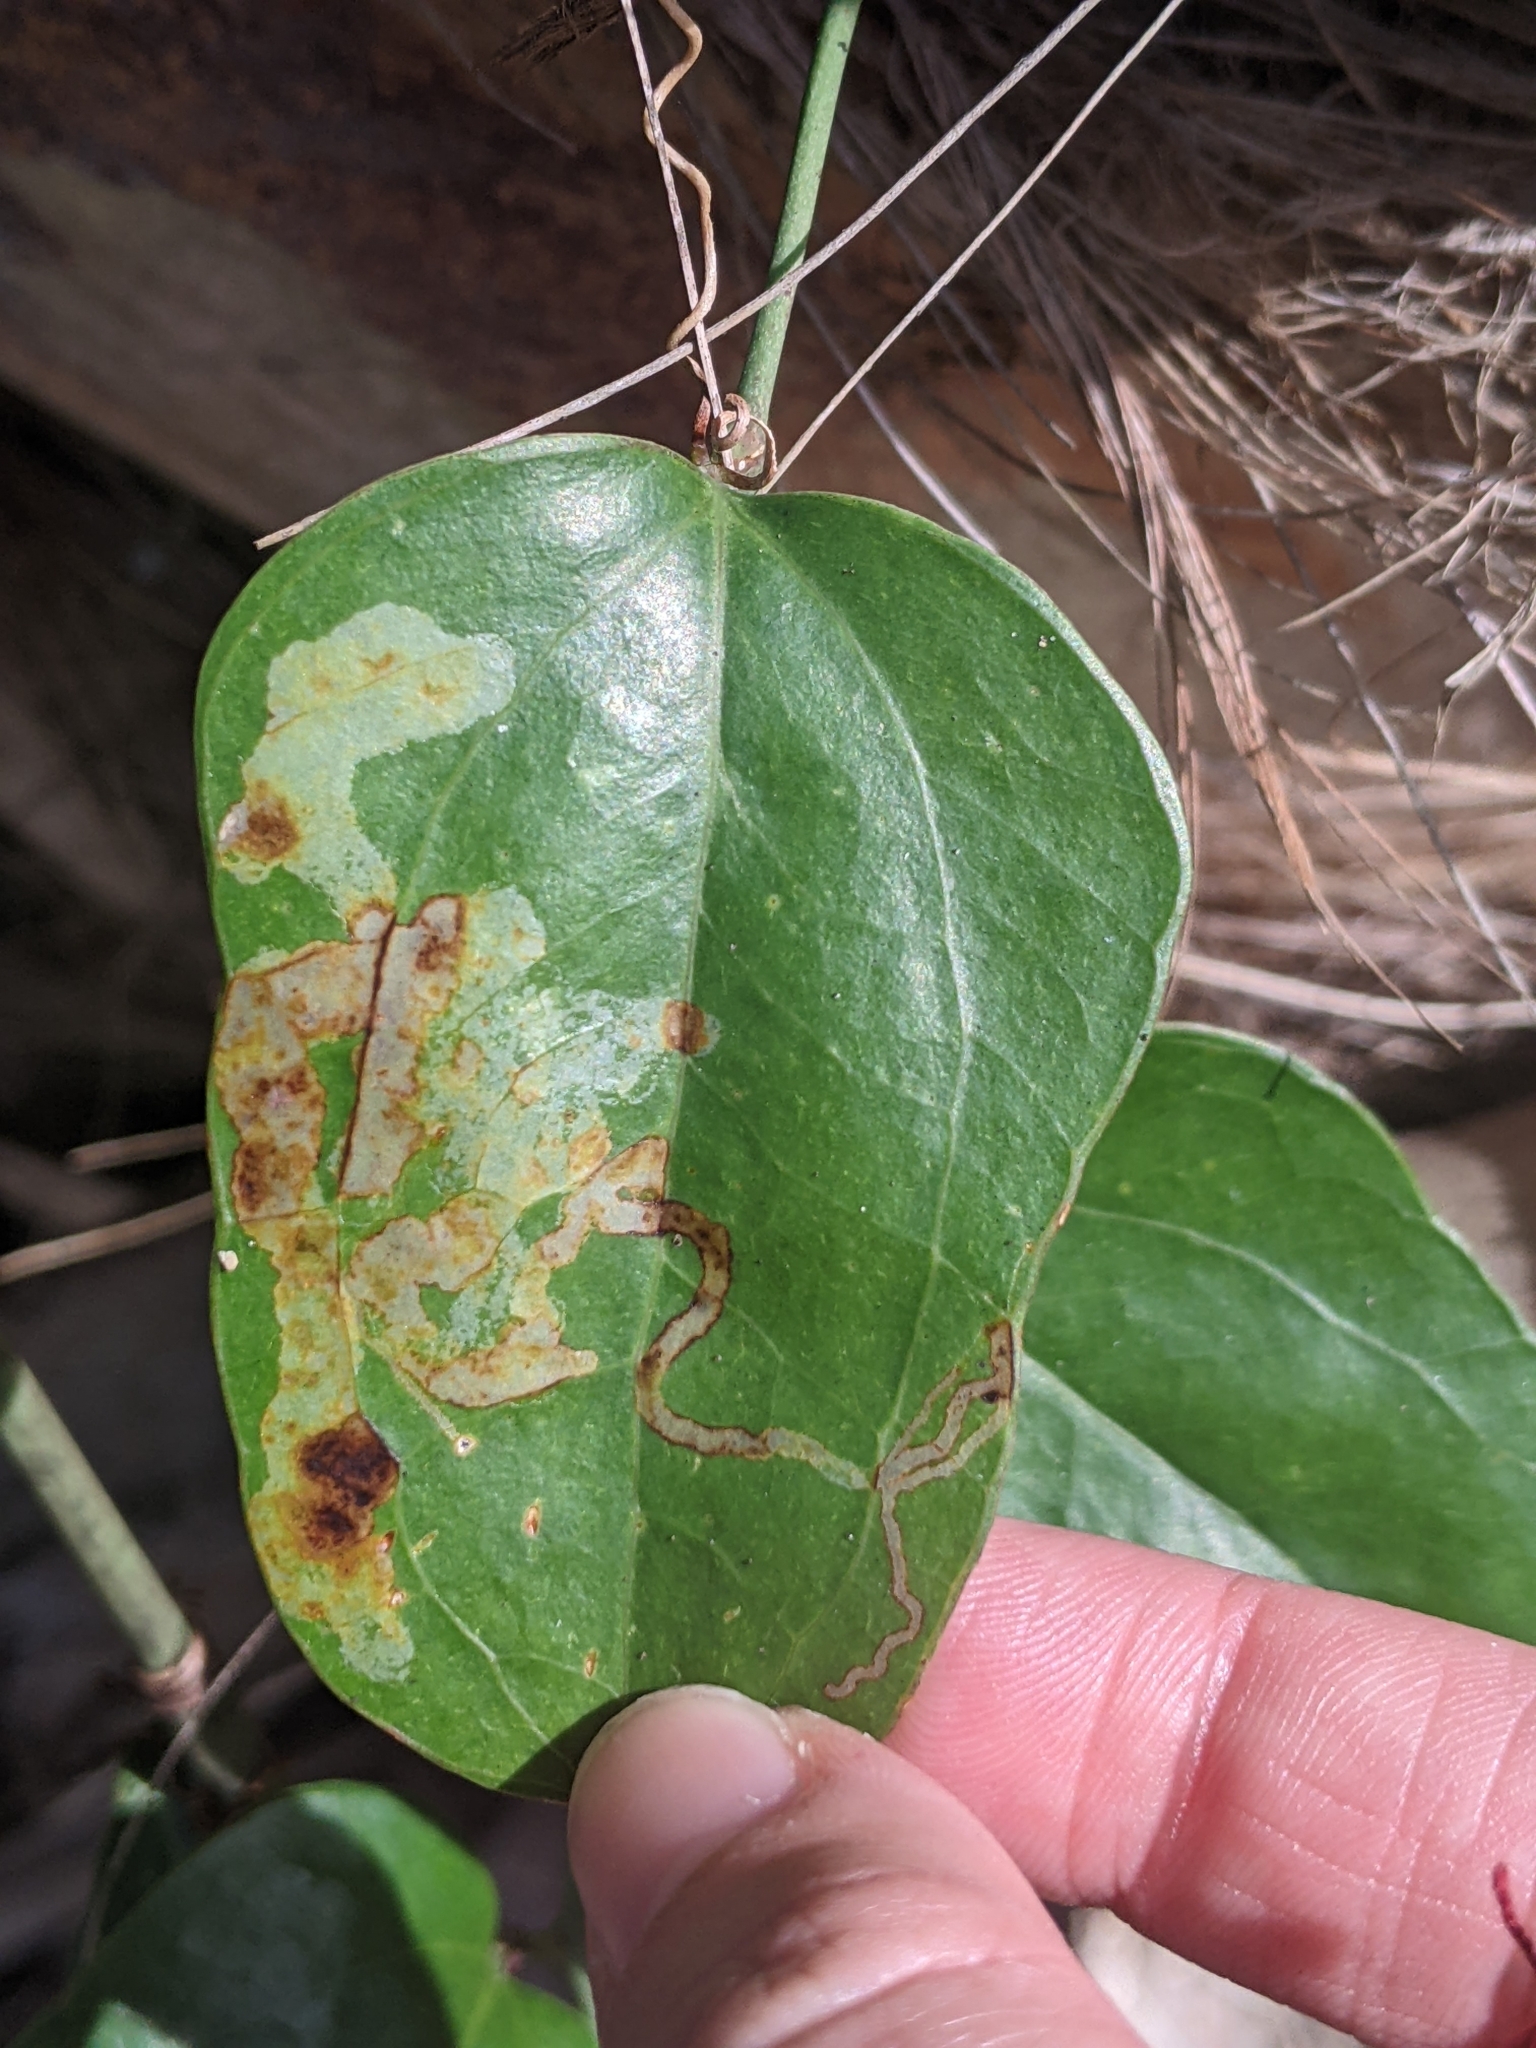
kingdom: Animalia
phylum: Arthropoda
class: Insecta
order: Diptera
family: Agromyzidae
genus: Liriomyza
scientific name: Liriomyza schmidti
